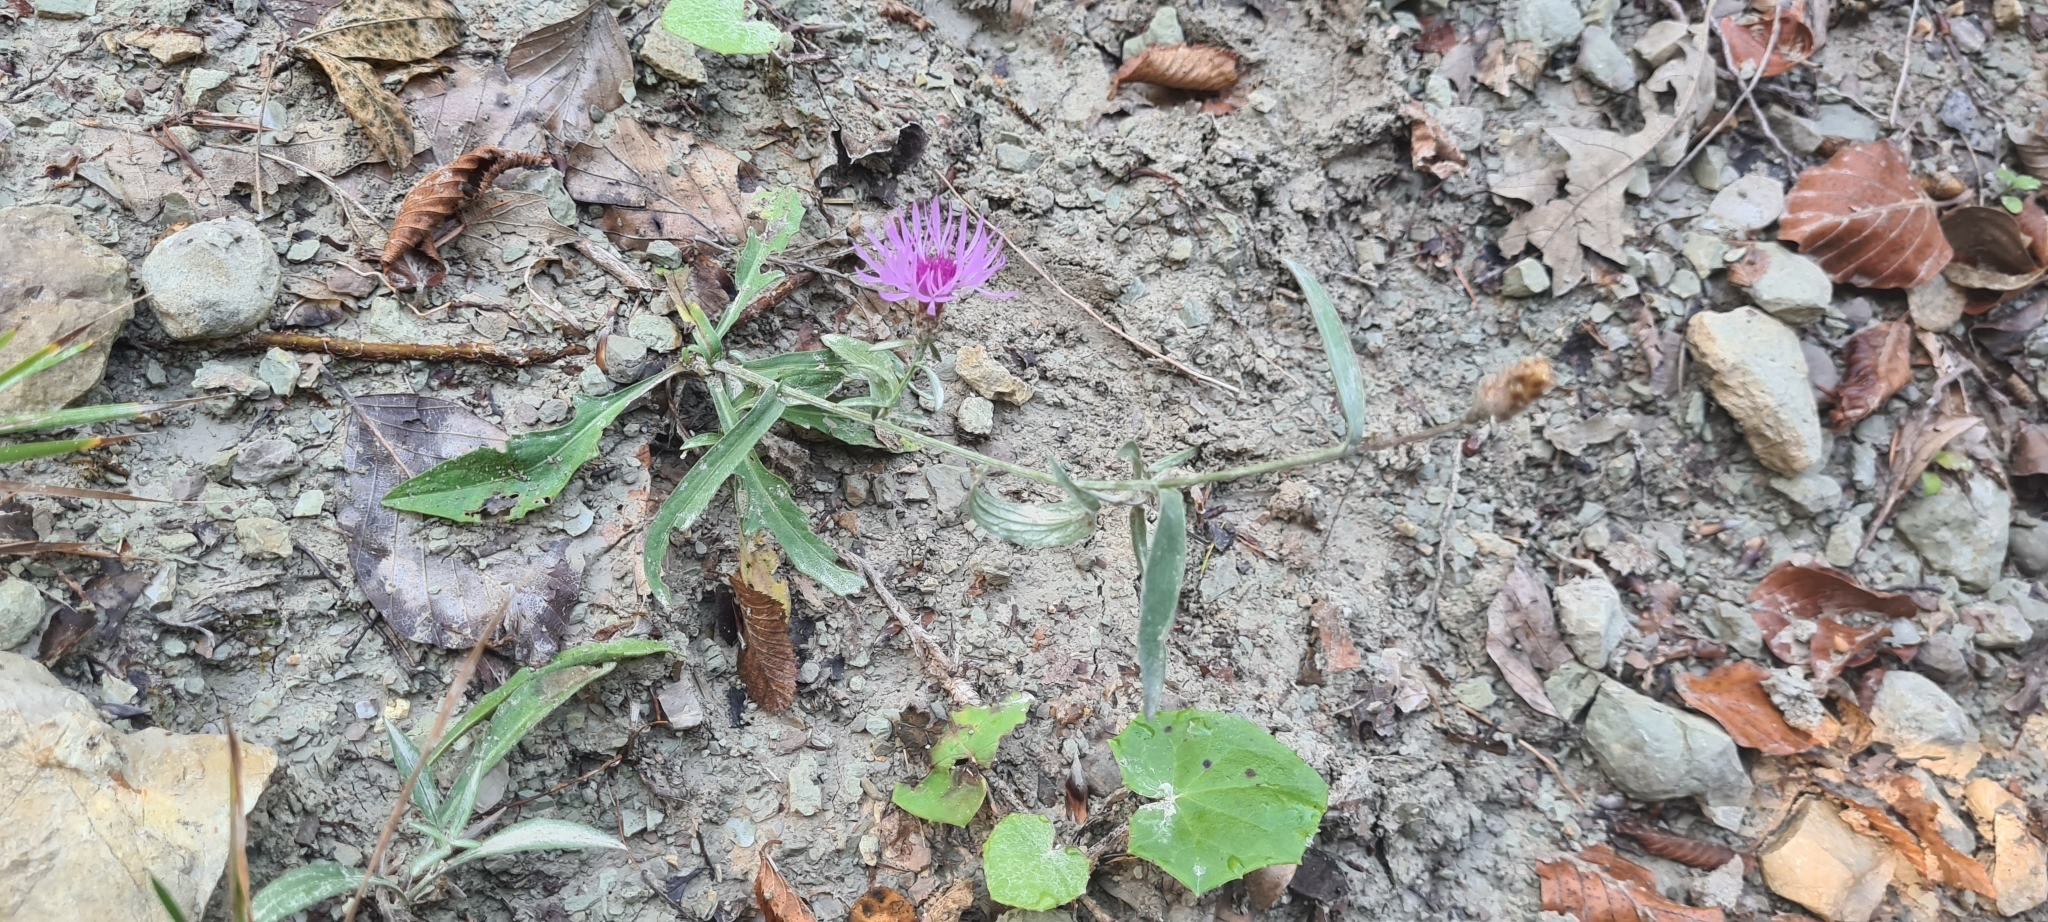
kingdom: Plantae
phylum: Tracheophyta
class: Magnoliopsida
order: Asterales
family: Asteraceae
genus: Centaurea
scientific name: Centaurea jacea
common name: Brown knapweed
